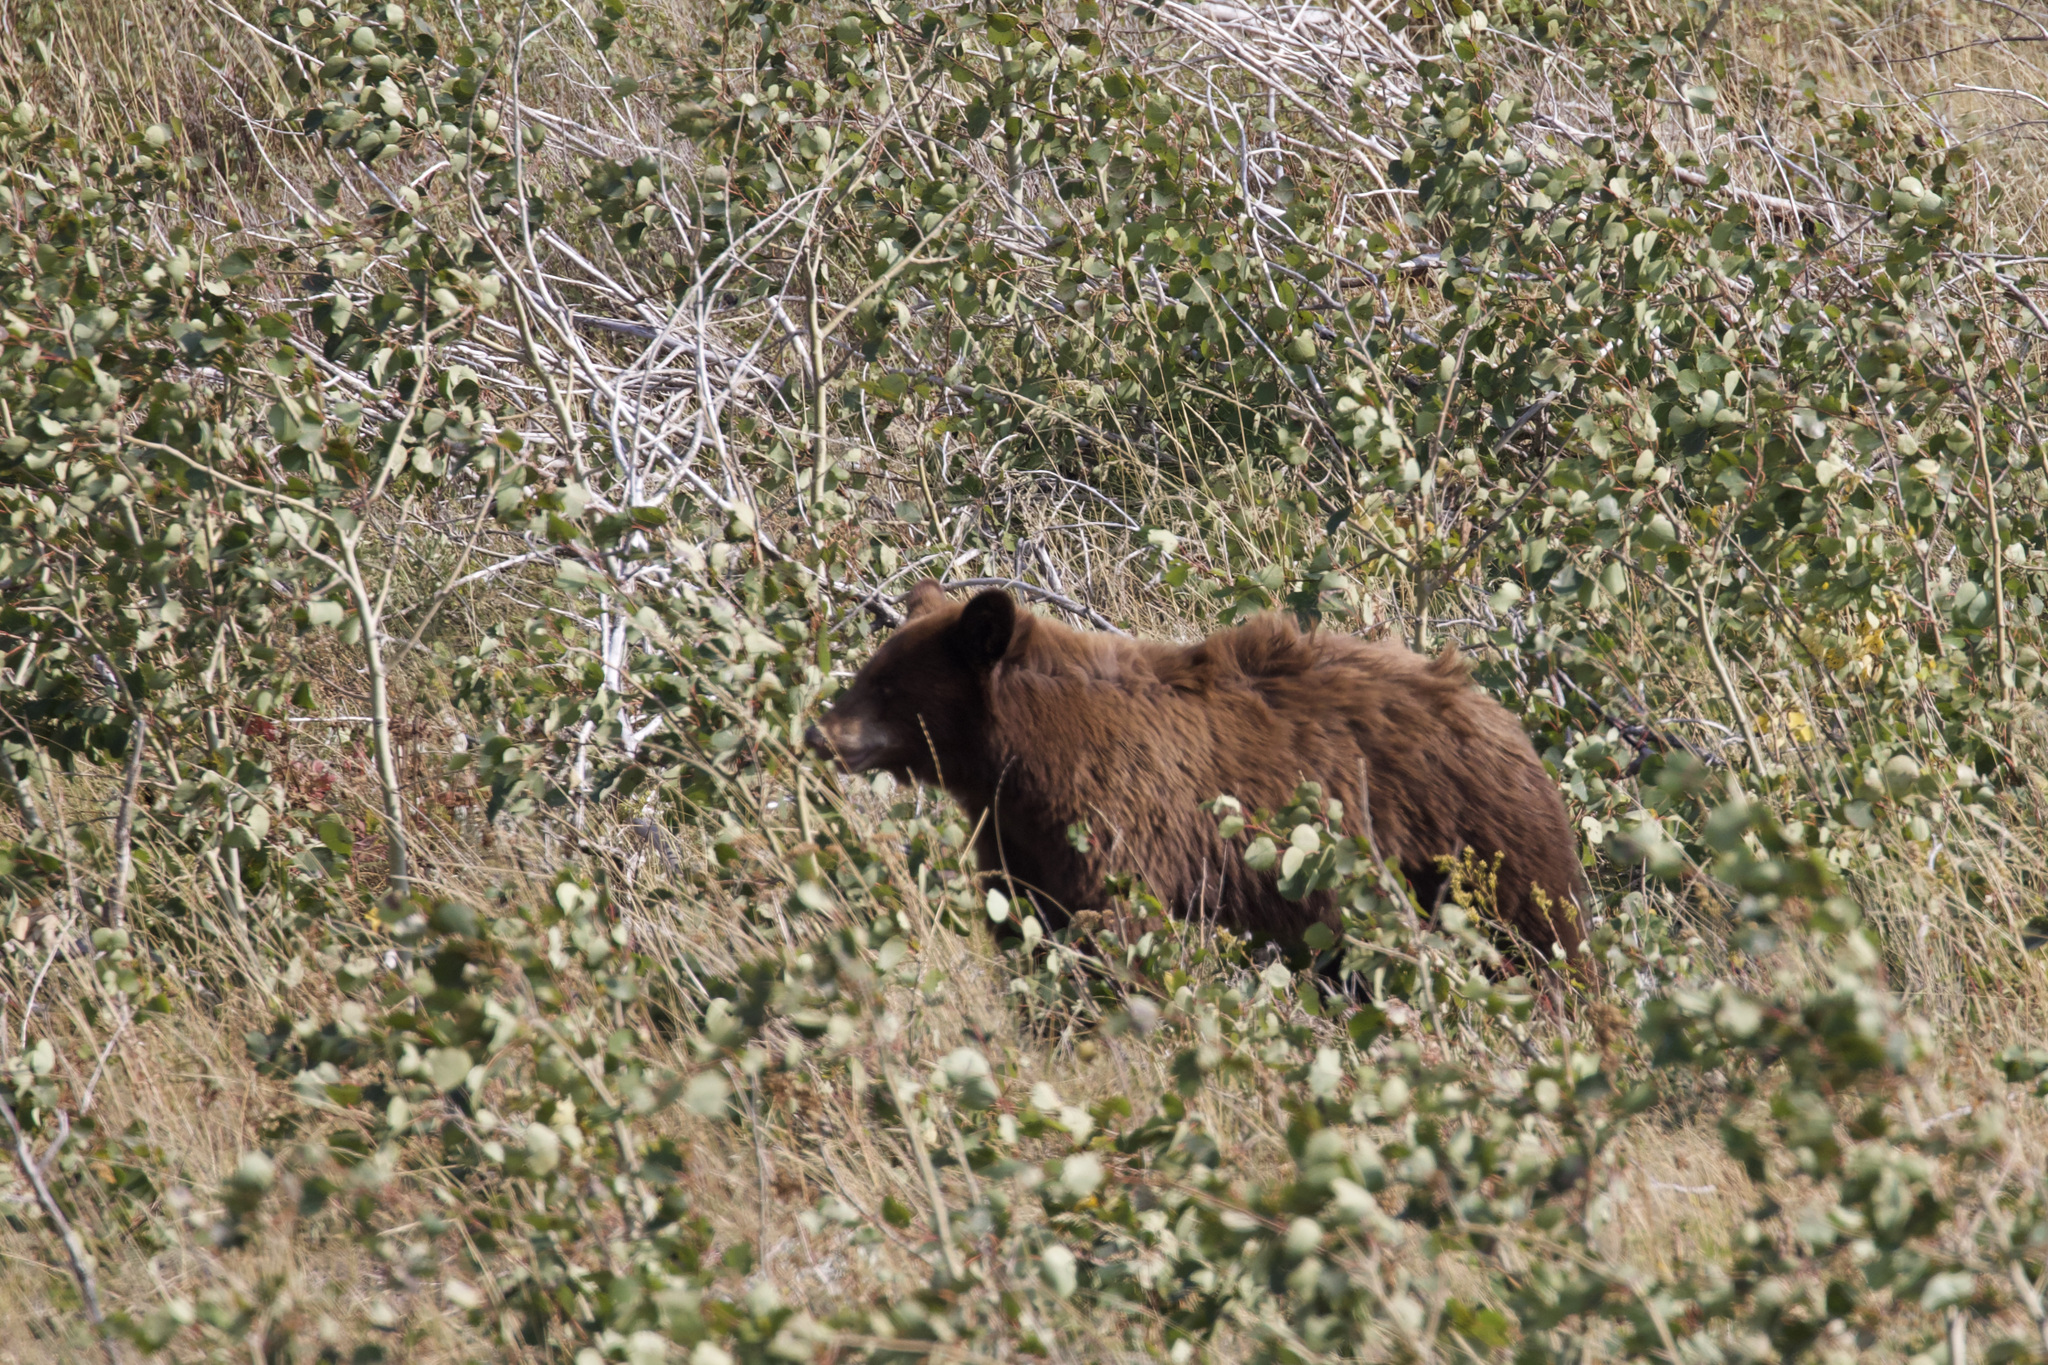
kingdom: Animalia
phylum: Chordata
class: Mammalia
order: Carnivora
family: Ursidae
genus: Ursus
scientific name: Ursus americanus
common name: American black bear
